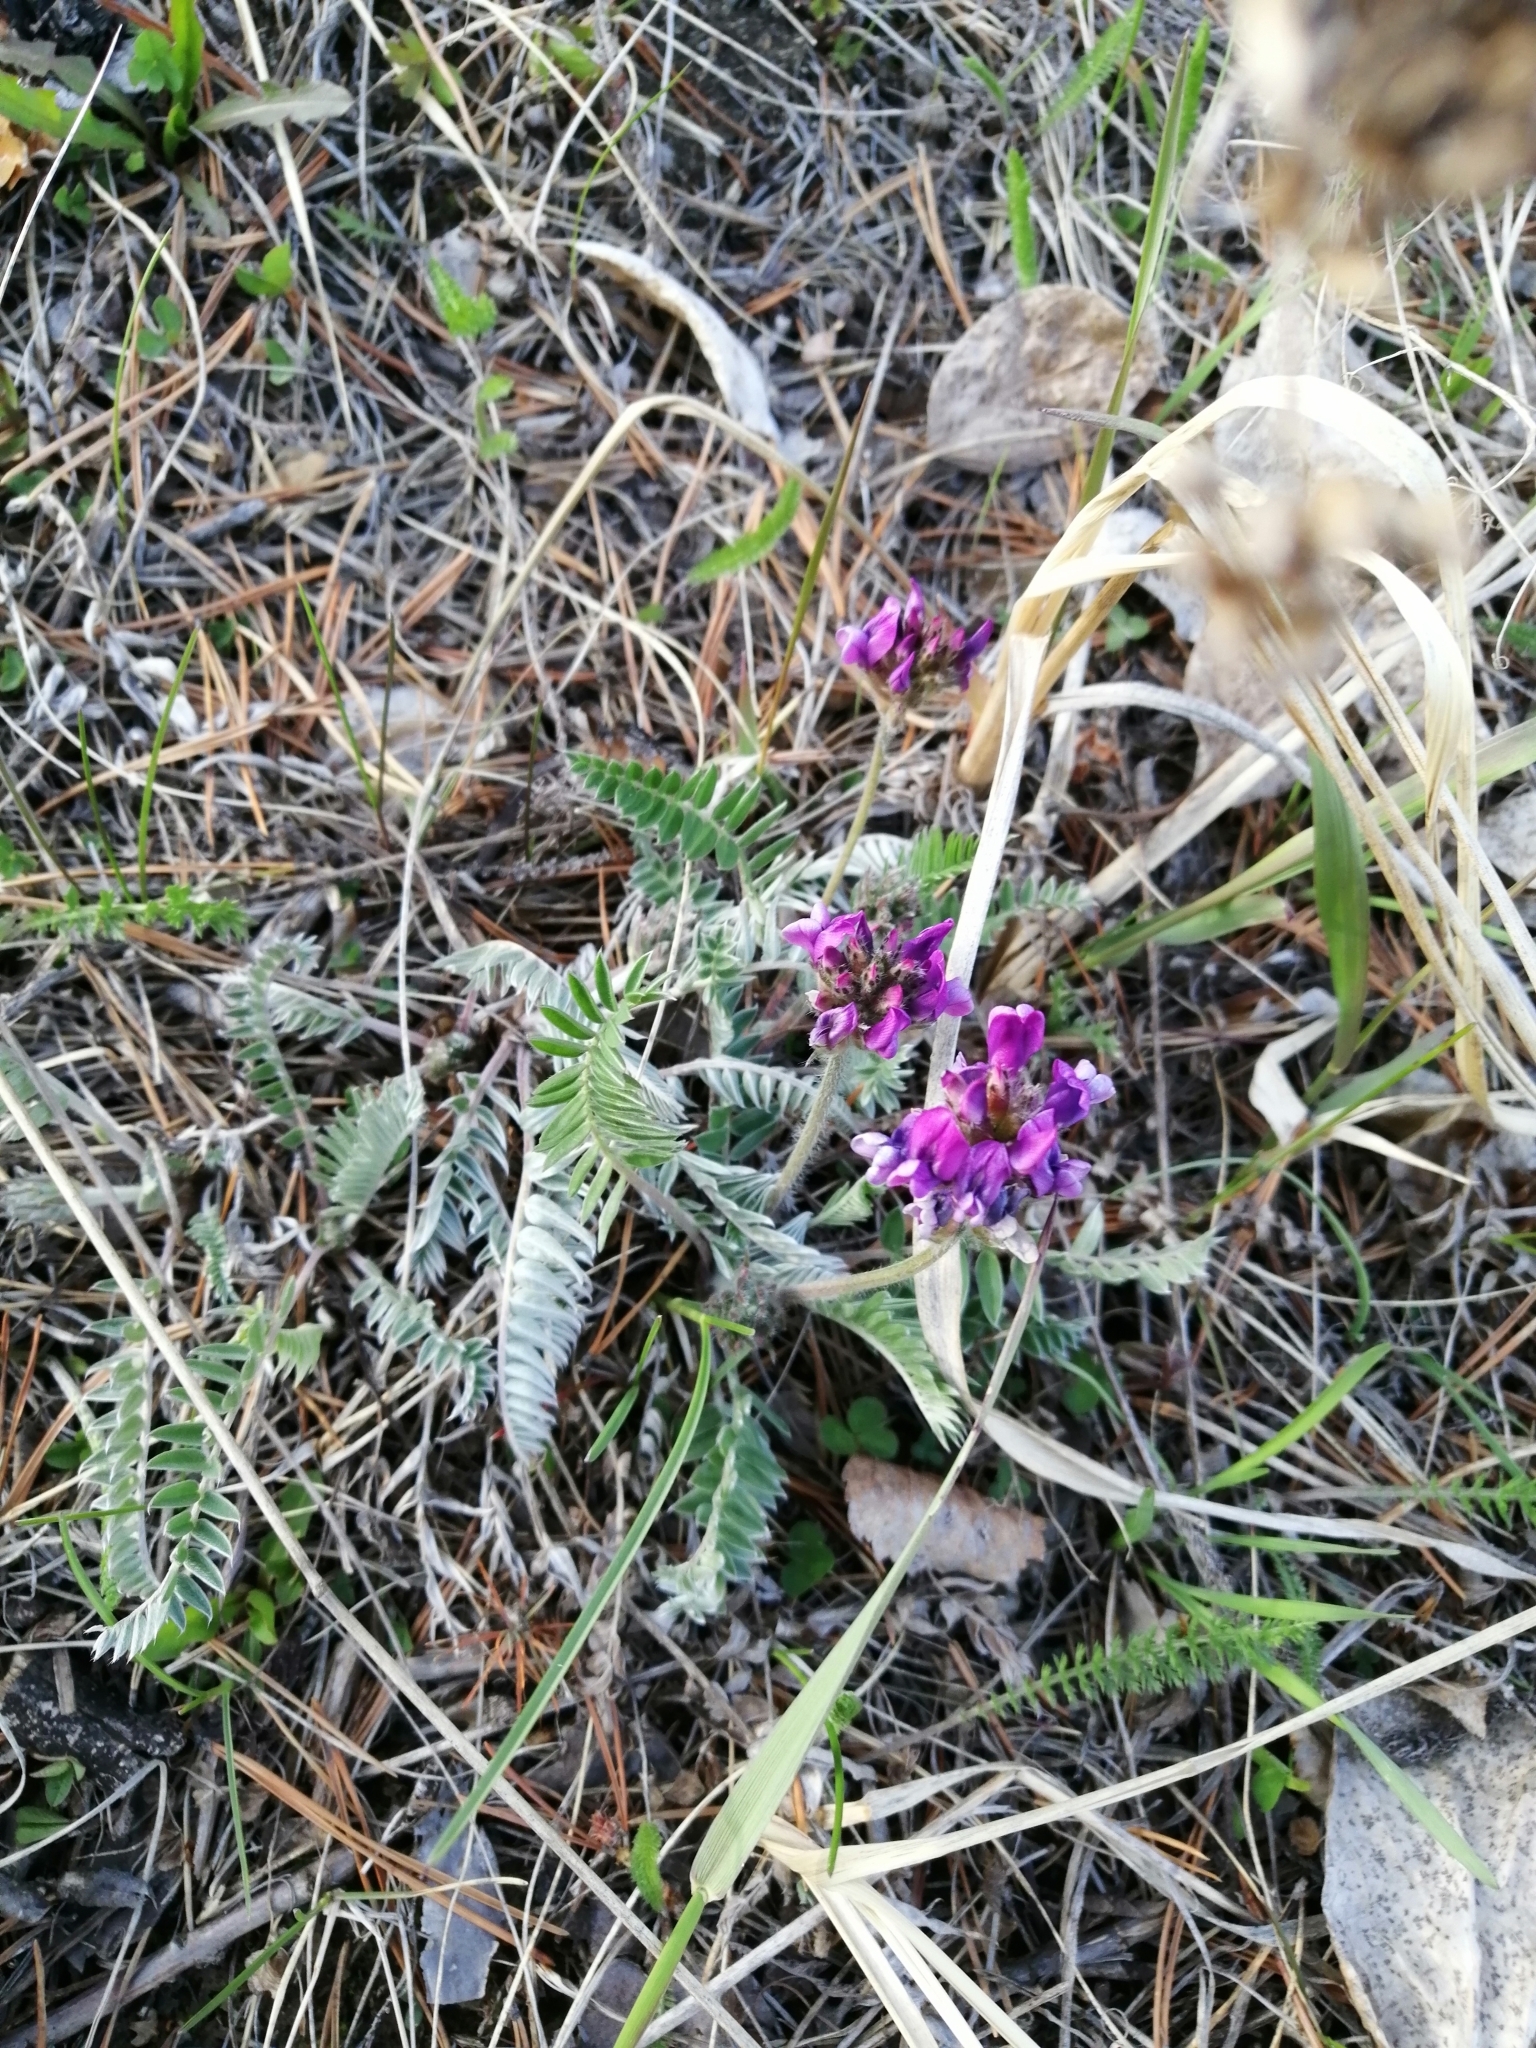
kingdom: Plantae
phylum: Tracheophyta
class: Magnoliopsida
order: Fabales
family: Fabaceae
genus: Oxytropis
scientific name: Oxytropis strobilacea
